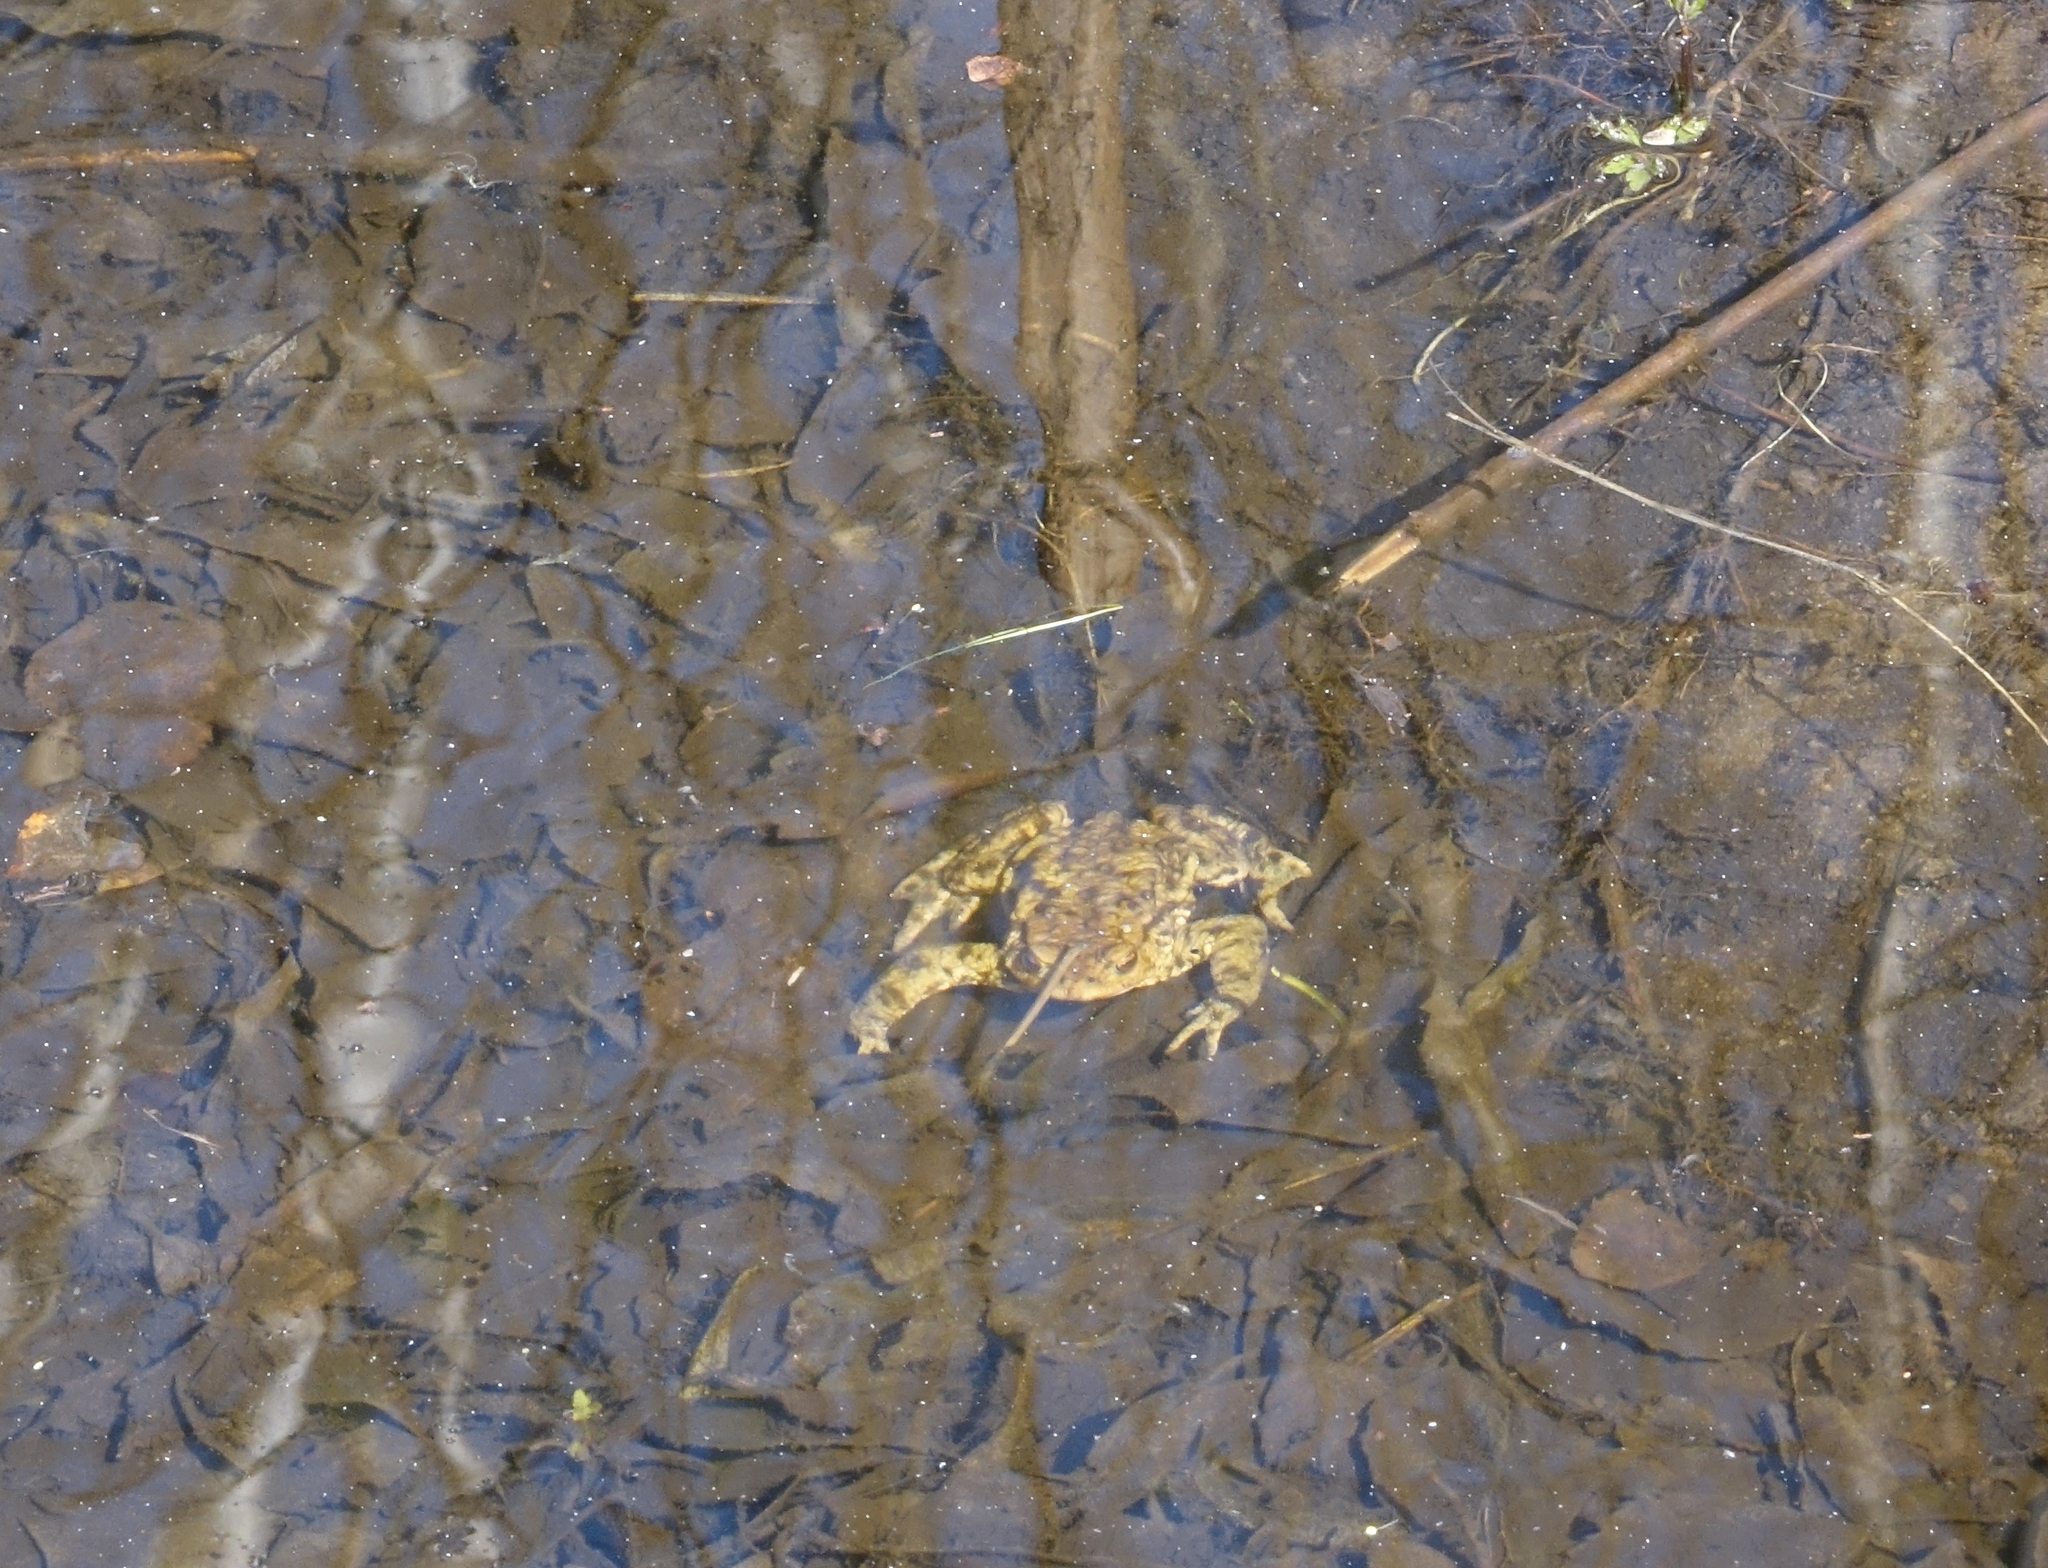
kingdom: Animalia
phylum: Chordata
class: Amphibia
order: Anura
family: Bufonidae
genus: Bufo
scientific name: Bufo bufo
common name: Common toad
